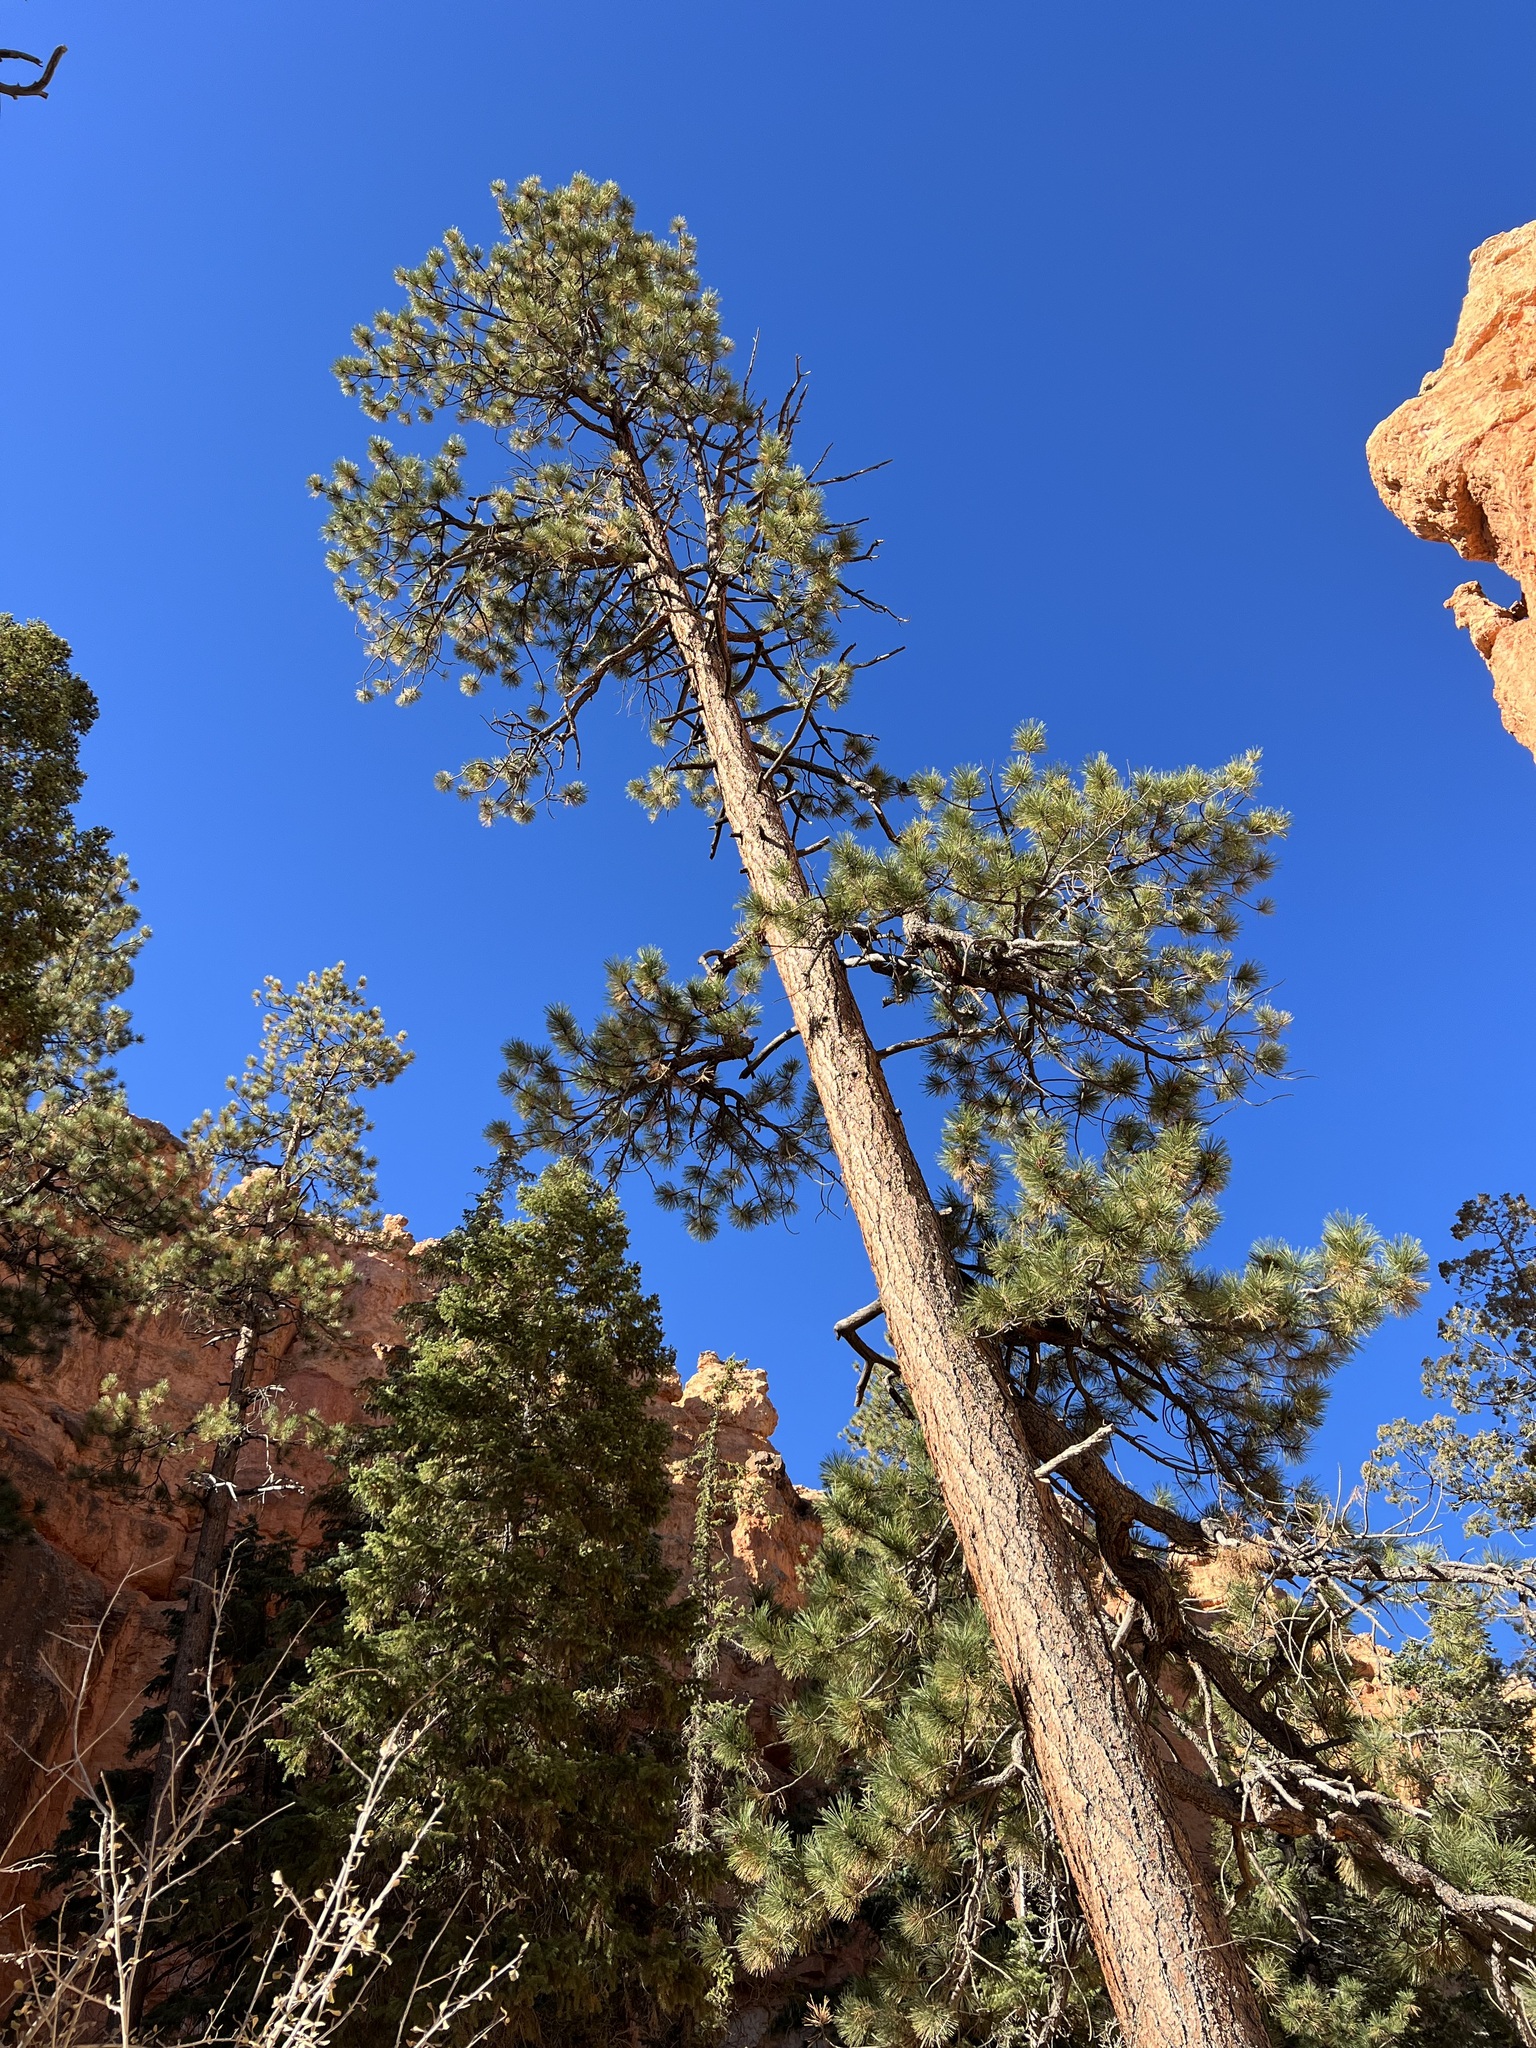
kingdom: Plantae
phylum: Tracheophyta
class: Pinopsida
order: Pinales
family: Pinaceae
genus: Pinus
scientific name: Pinus ponderosa
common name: Western yellow-pine
